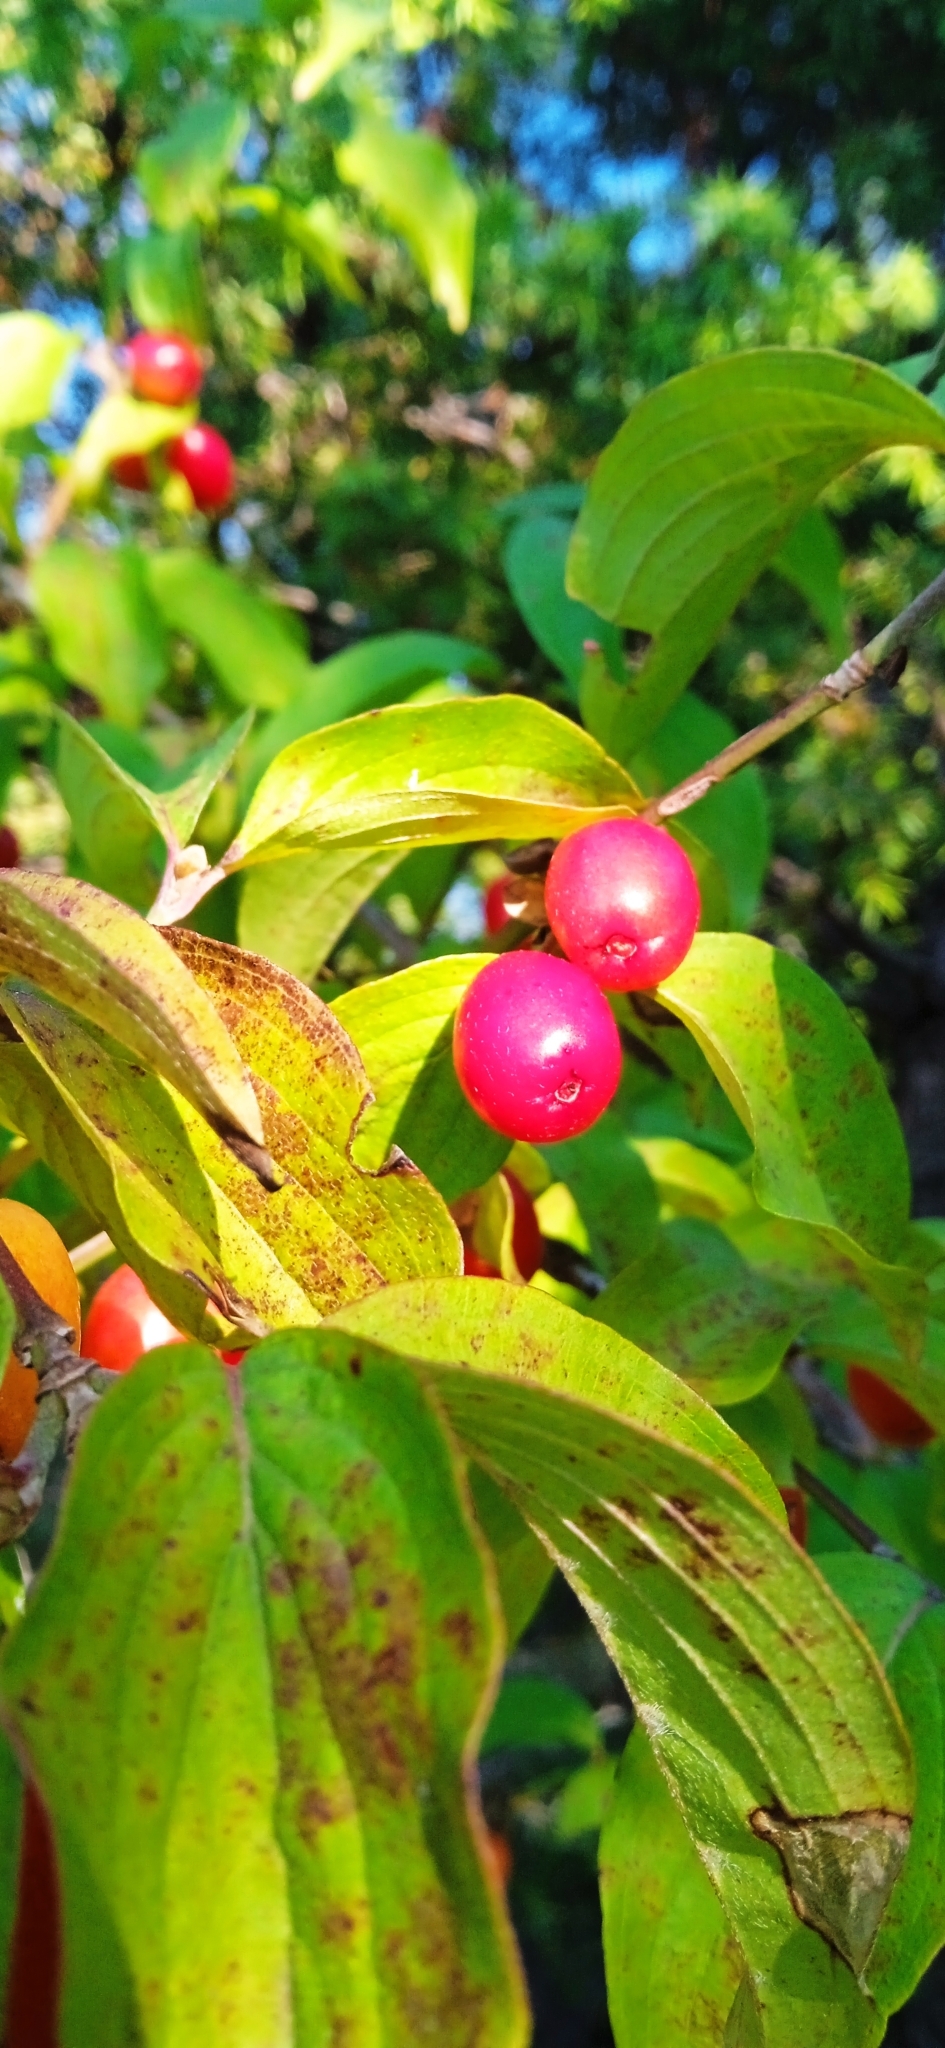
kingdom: Plantae
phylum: Tracheophyta
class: Magnoliopsida
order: Cornales
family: Cornaceae
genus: Cornus
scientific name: Cornus mas
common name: Cornelian-cherry
